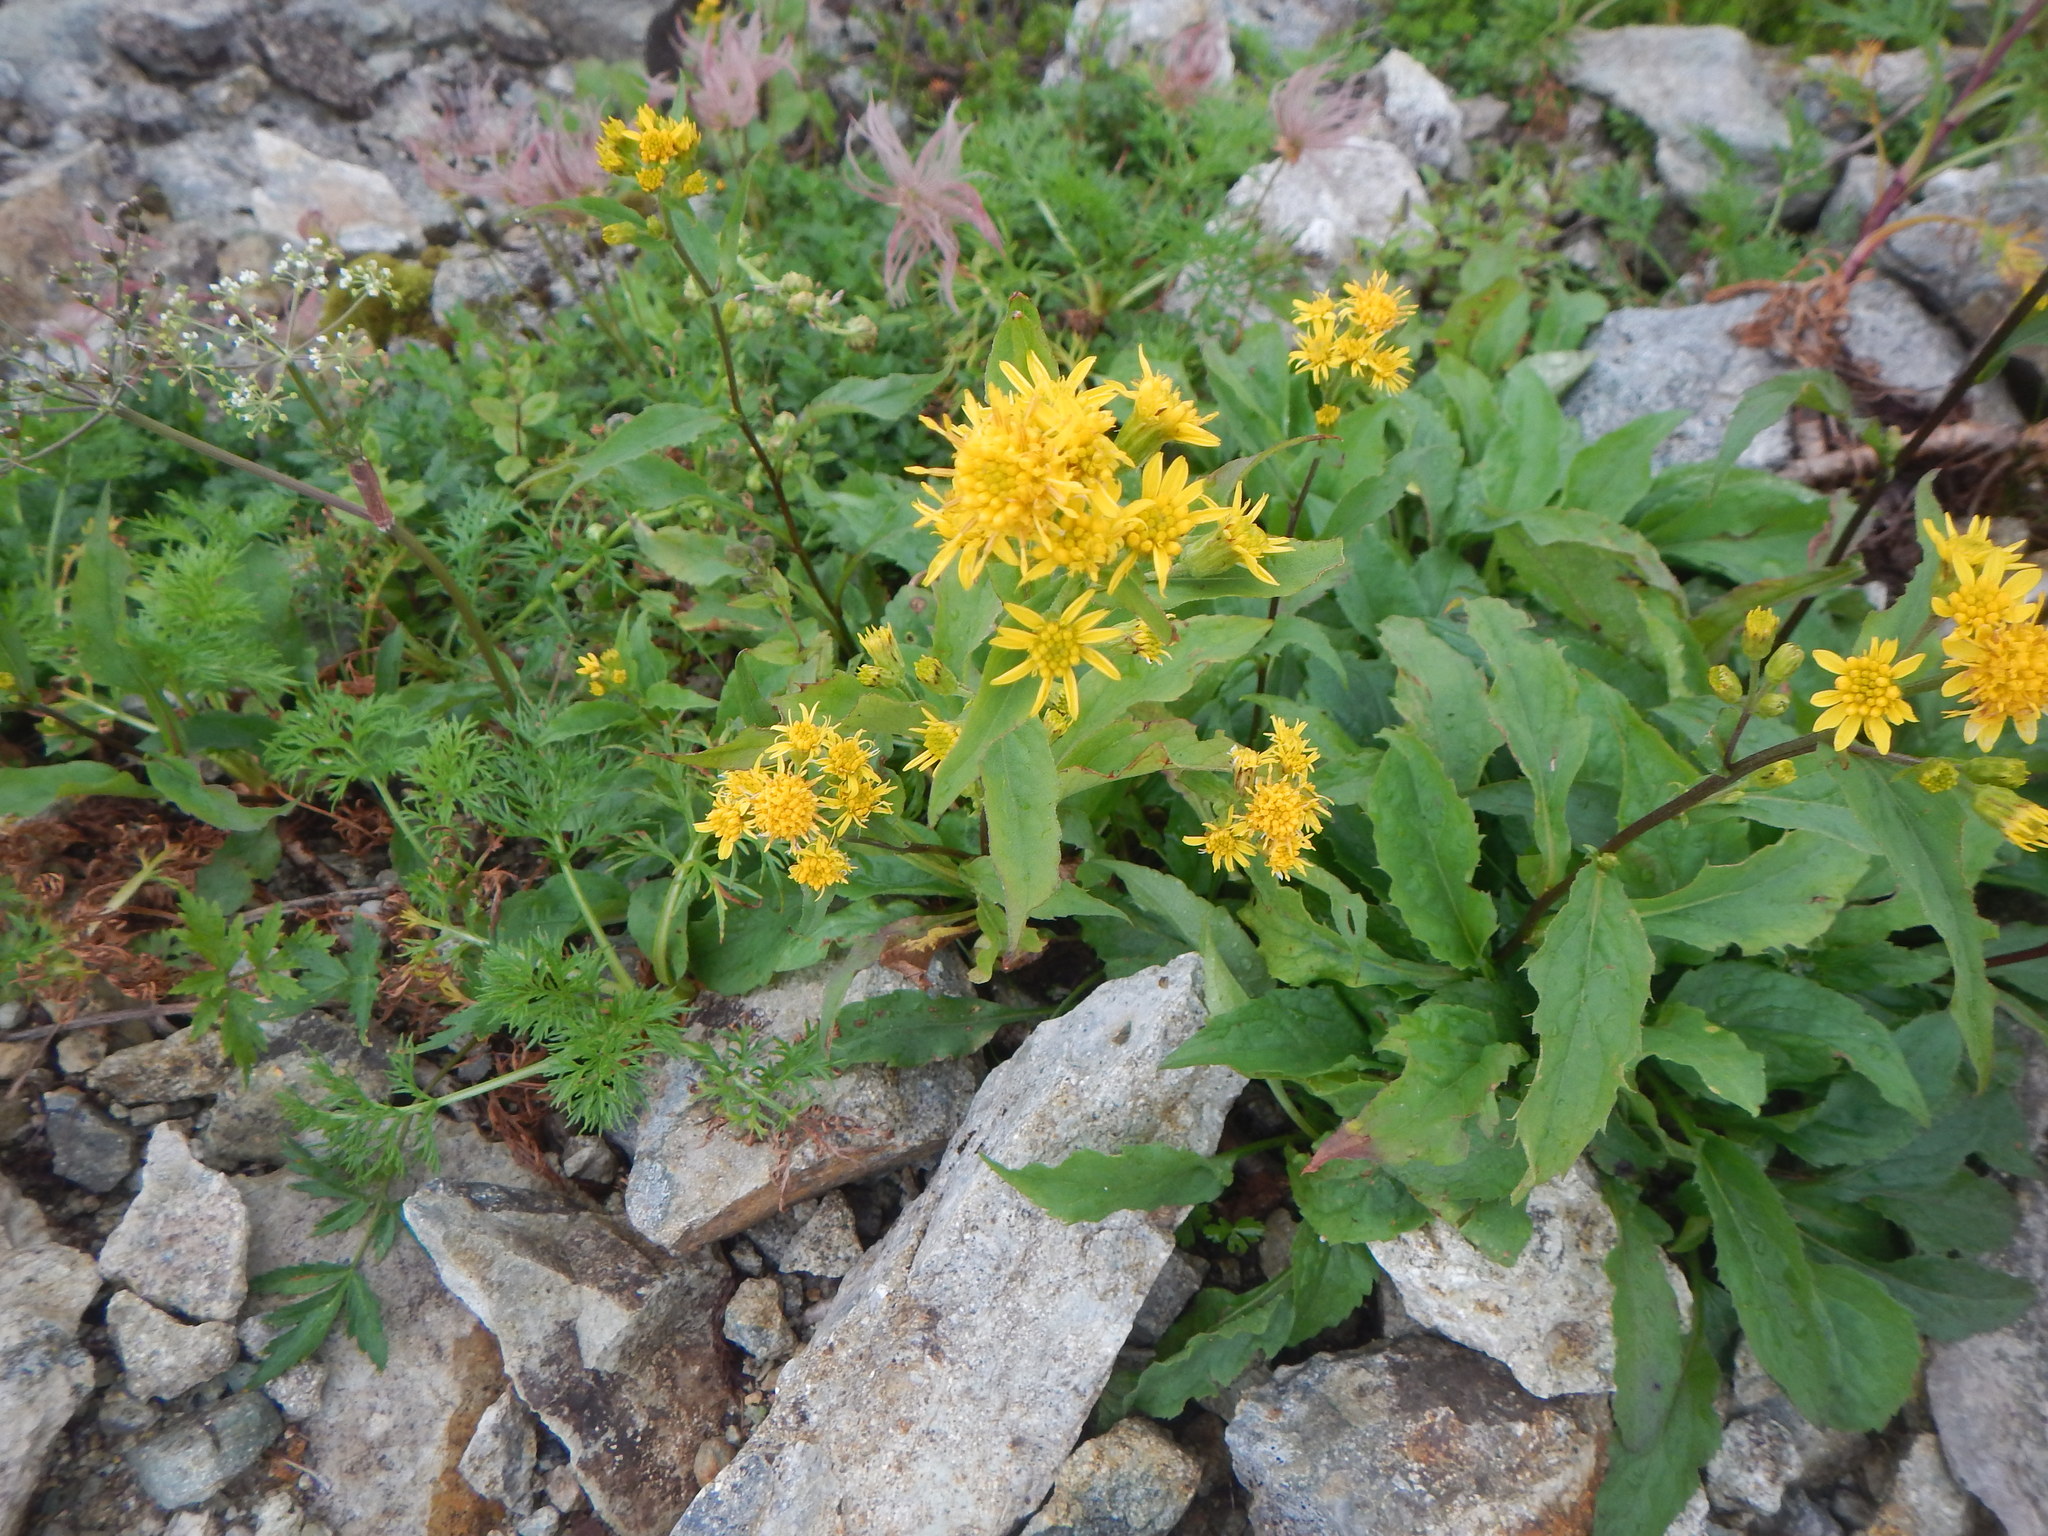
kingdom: Plantae
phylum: Tracheophyta
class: Magnoliopsida
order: Asterales
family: Asteraceae
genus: Solidago
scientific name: Solidago decurrens
